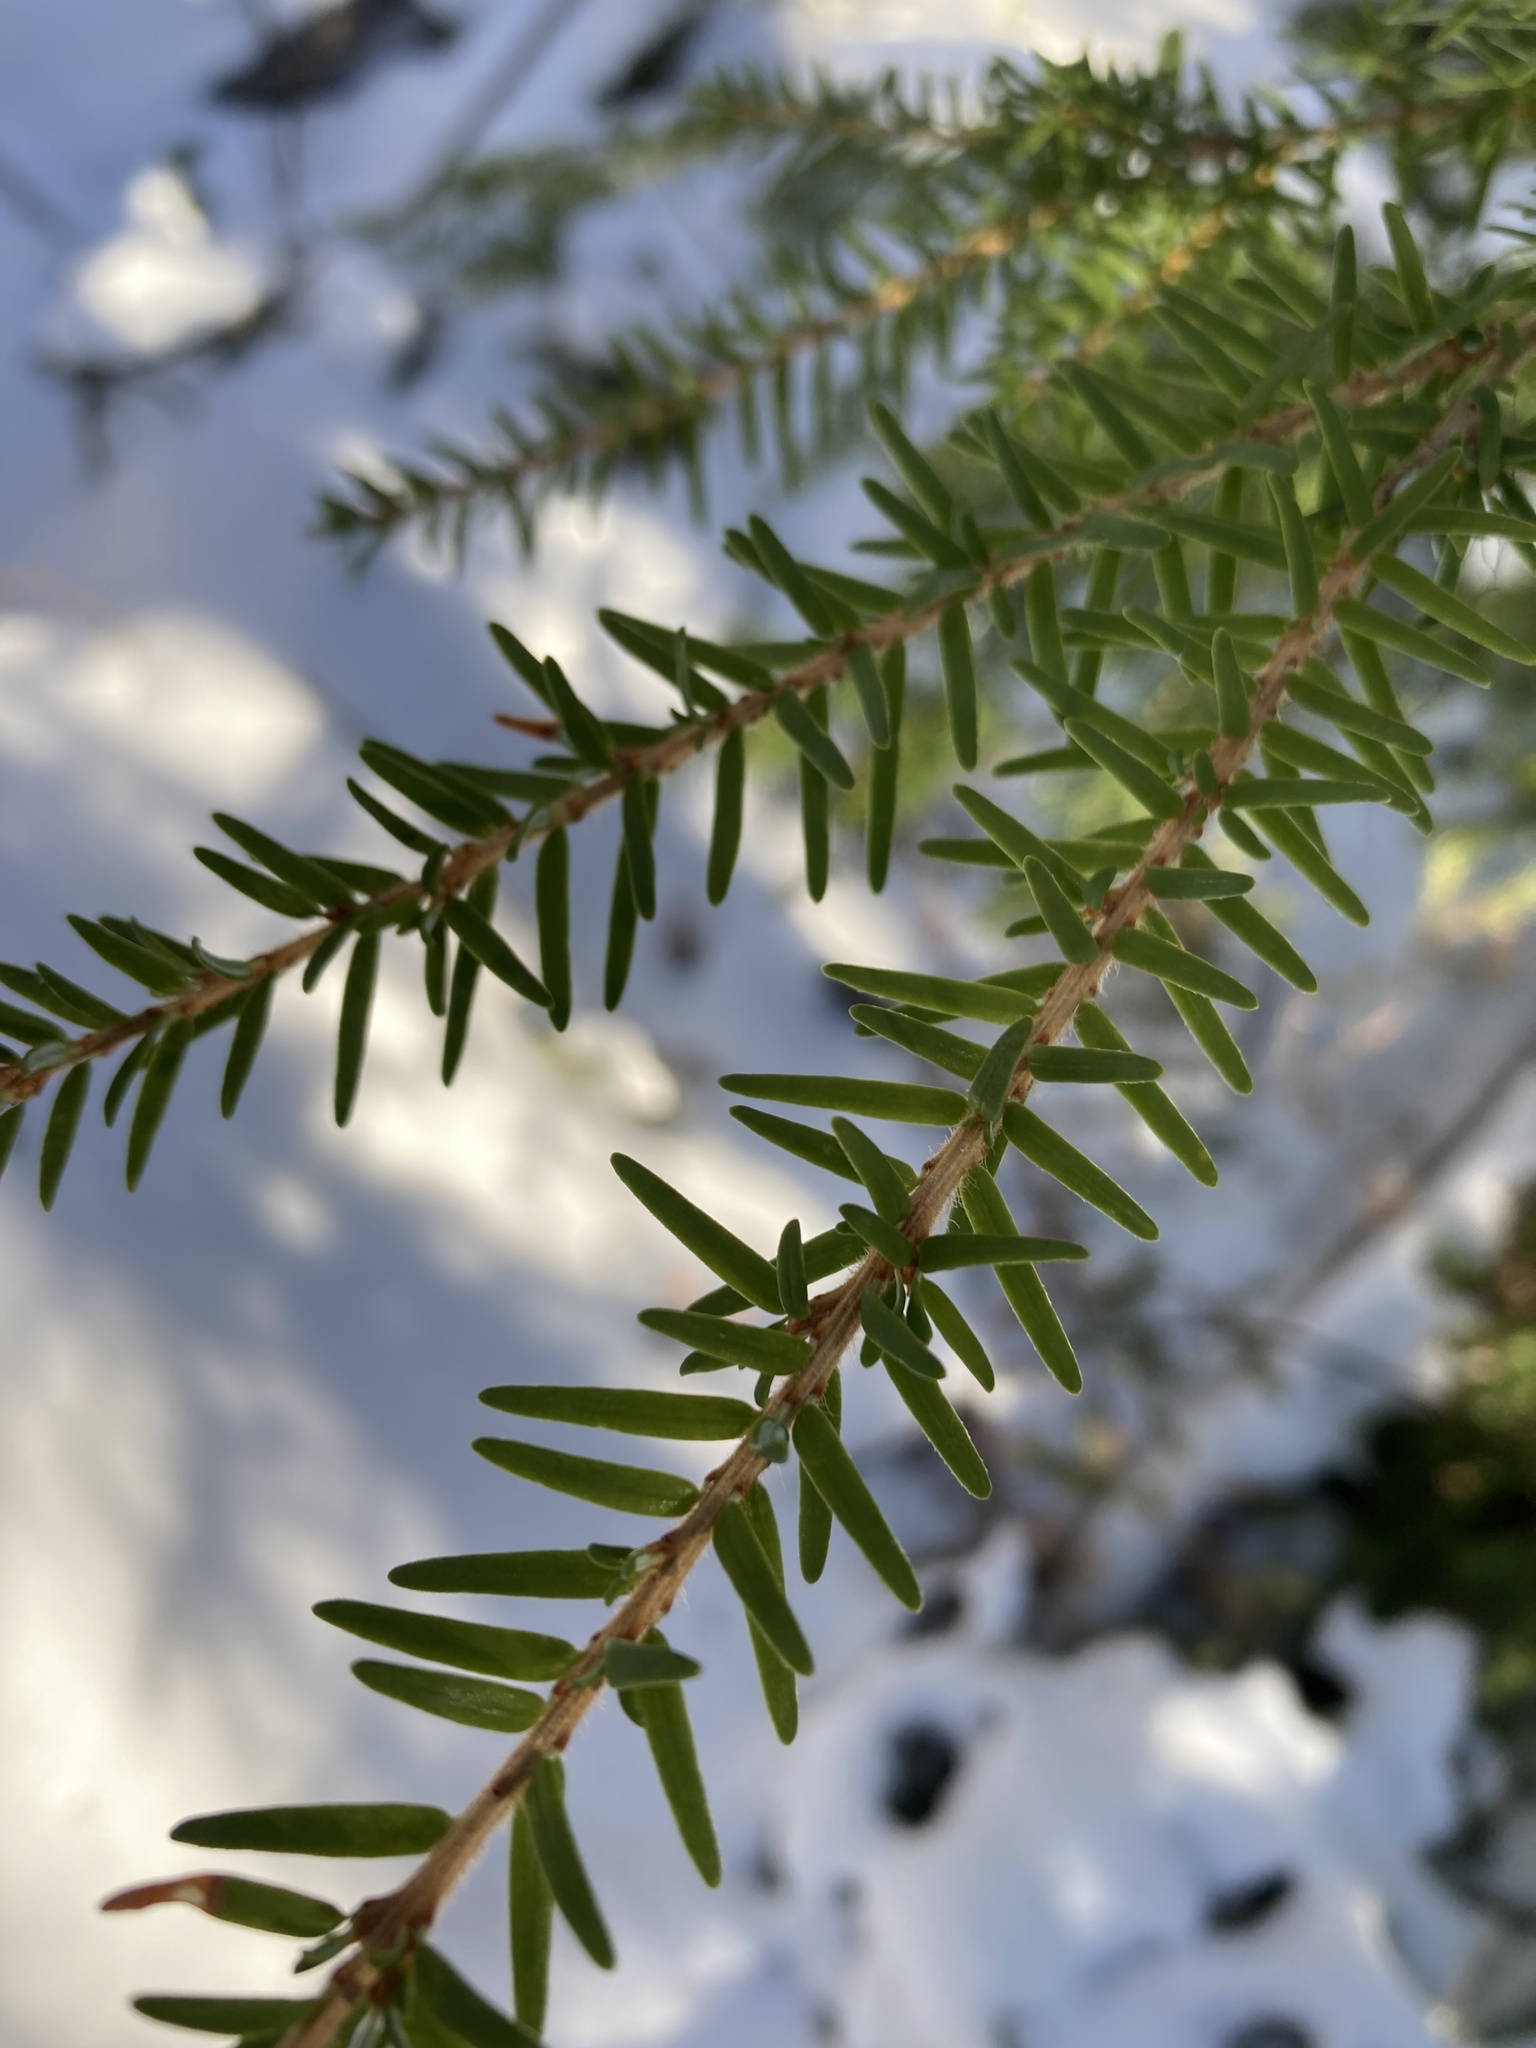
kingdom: Plantae
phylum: Tracheophyta
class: Pinopsida
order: Pinales
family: Pinaceae
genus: Tsuga
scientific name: Tsuga heterophylla
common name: Western hemlock
